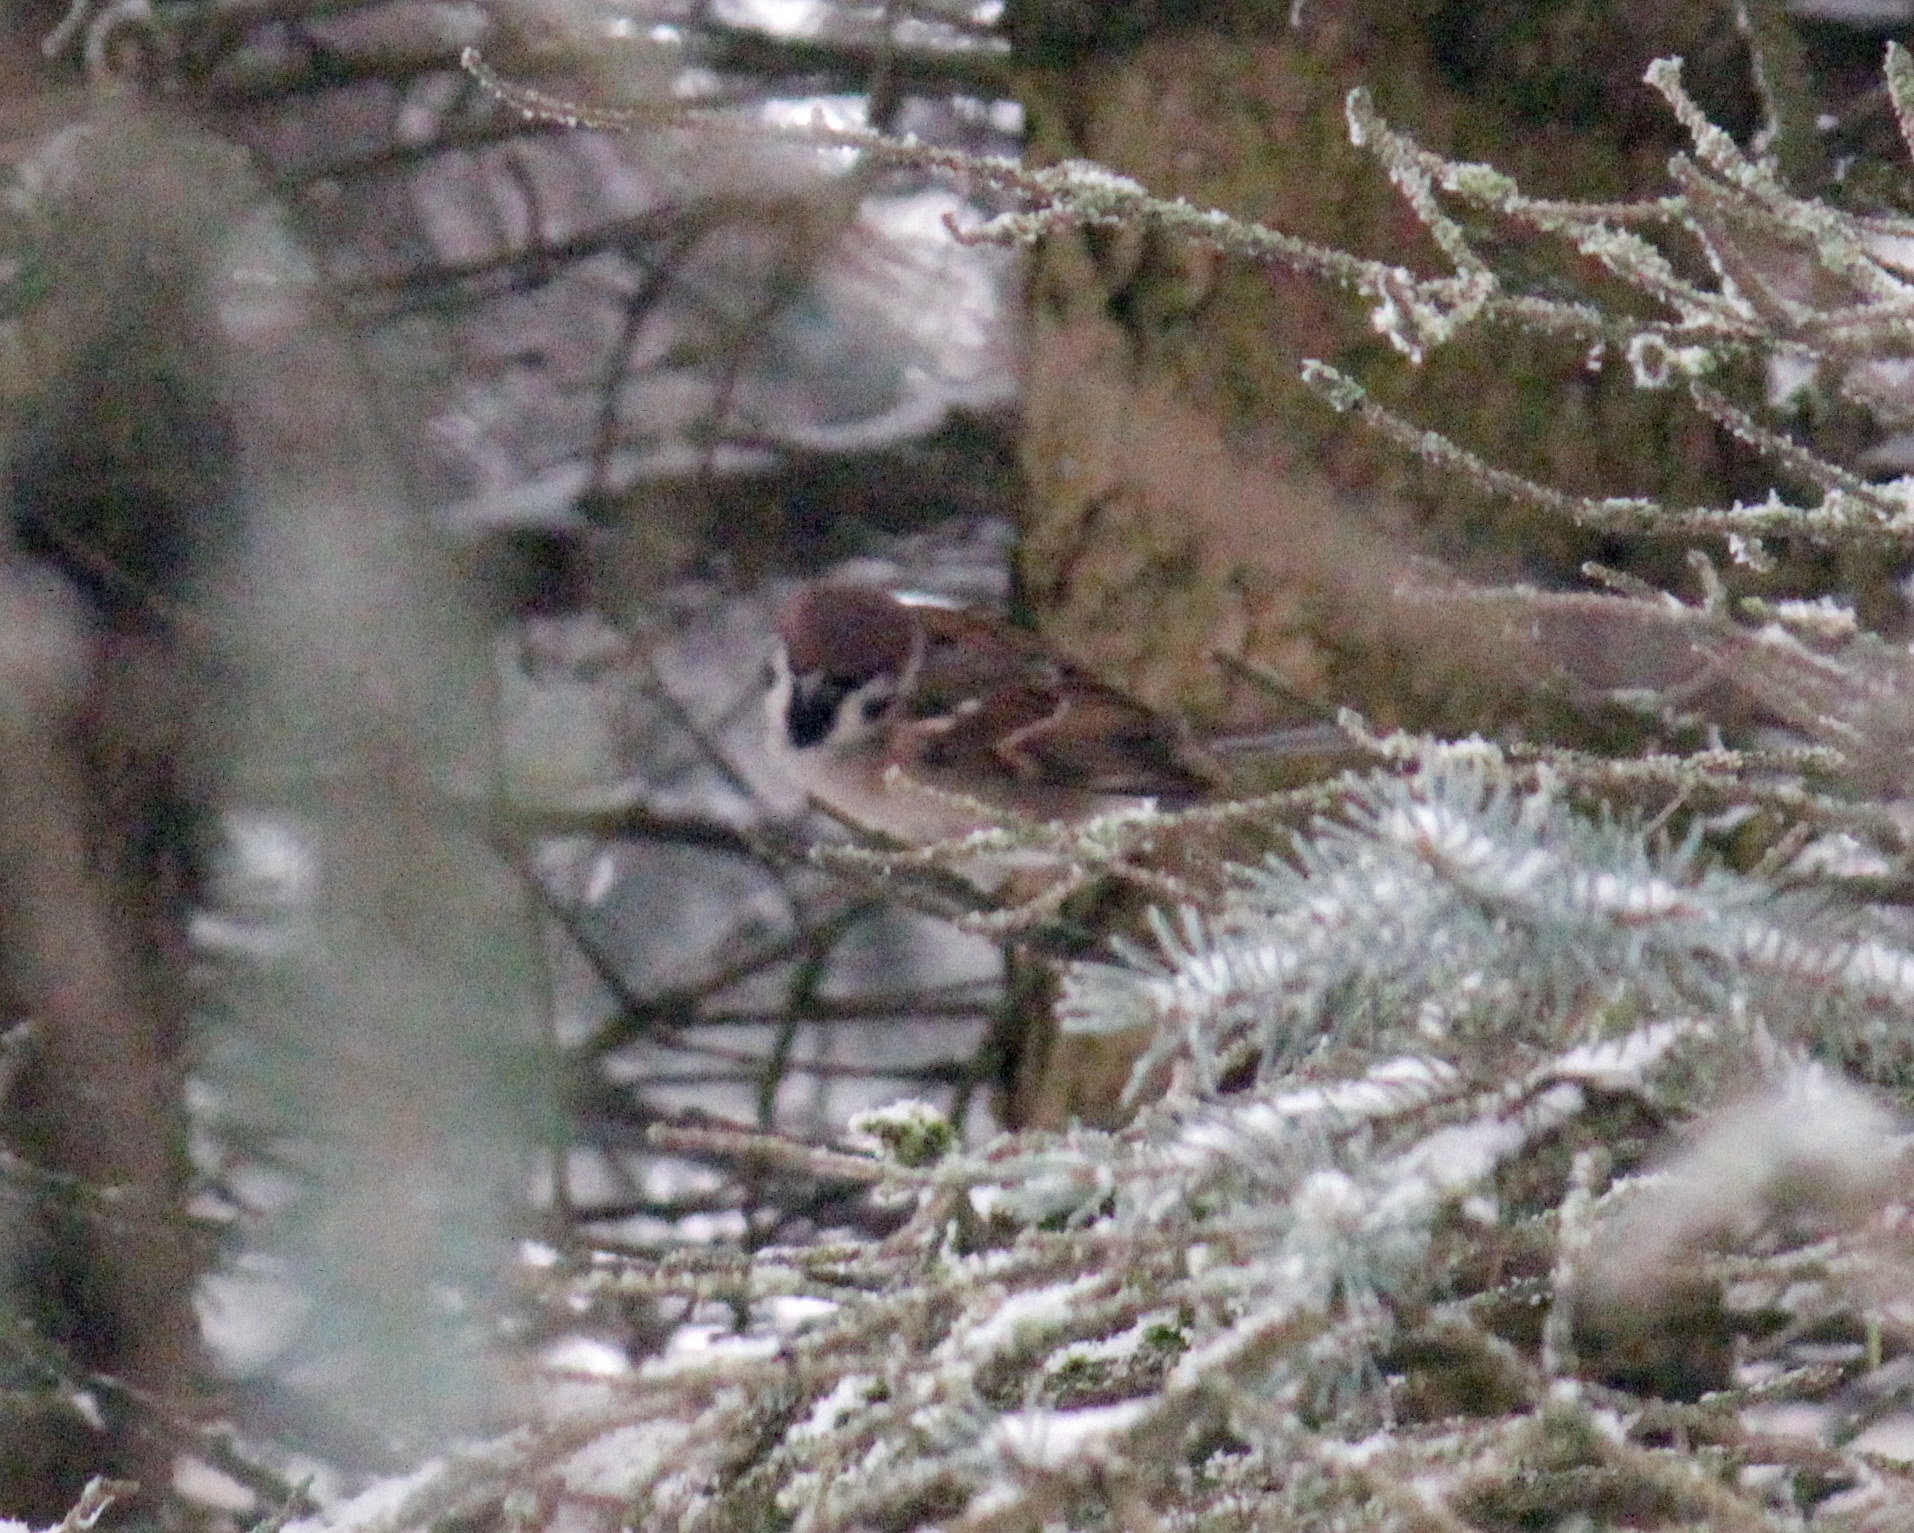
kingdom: Animalia
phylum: Chordata
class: Aves
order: Passeriformes
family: Passeridae
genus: Passer
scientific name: Passer montanus
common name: Eurasian tree sparrow
